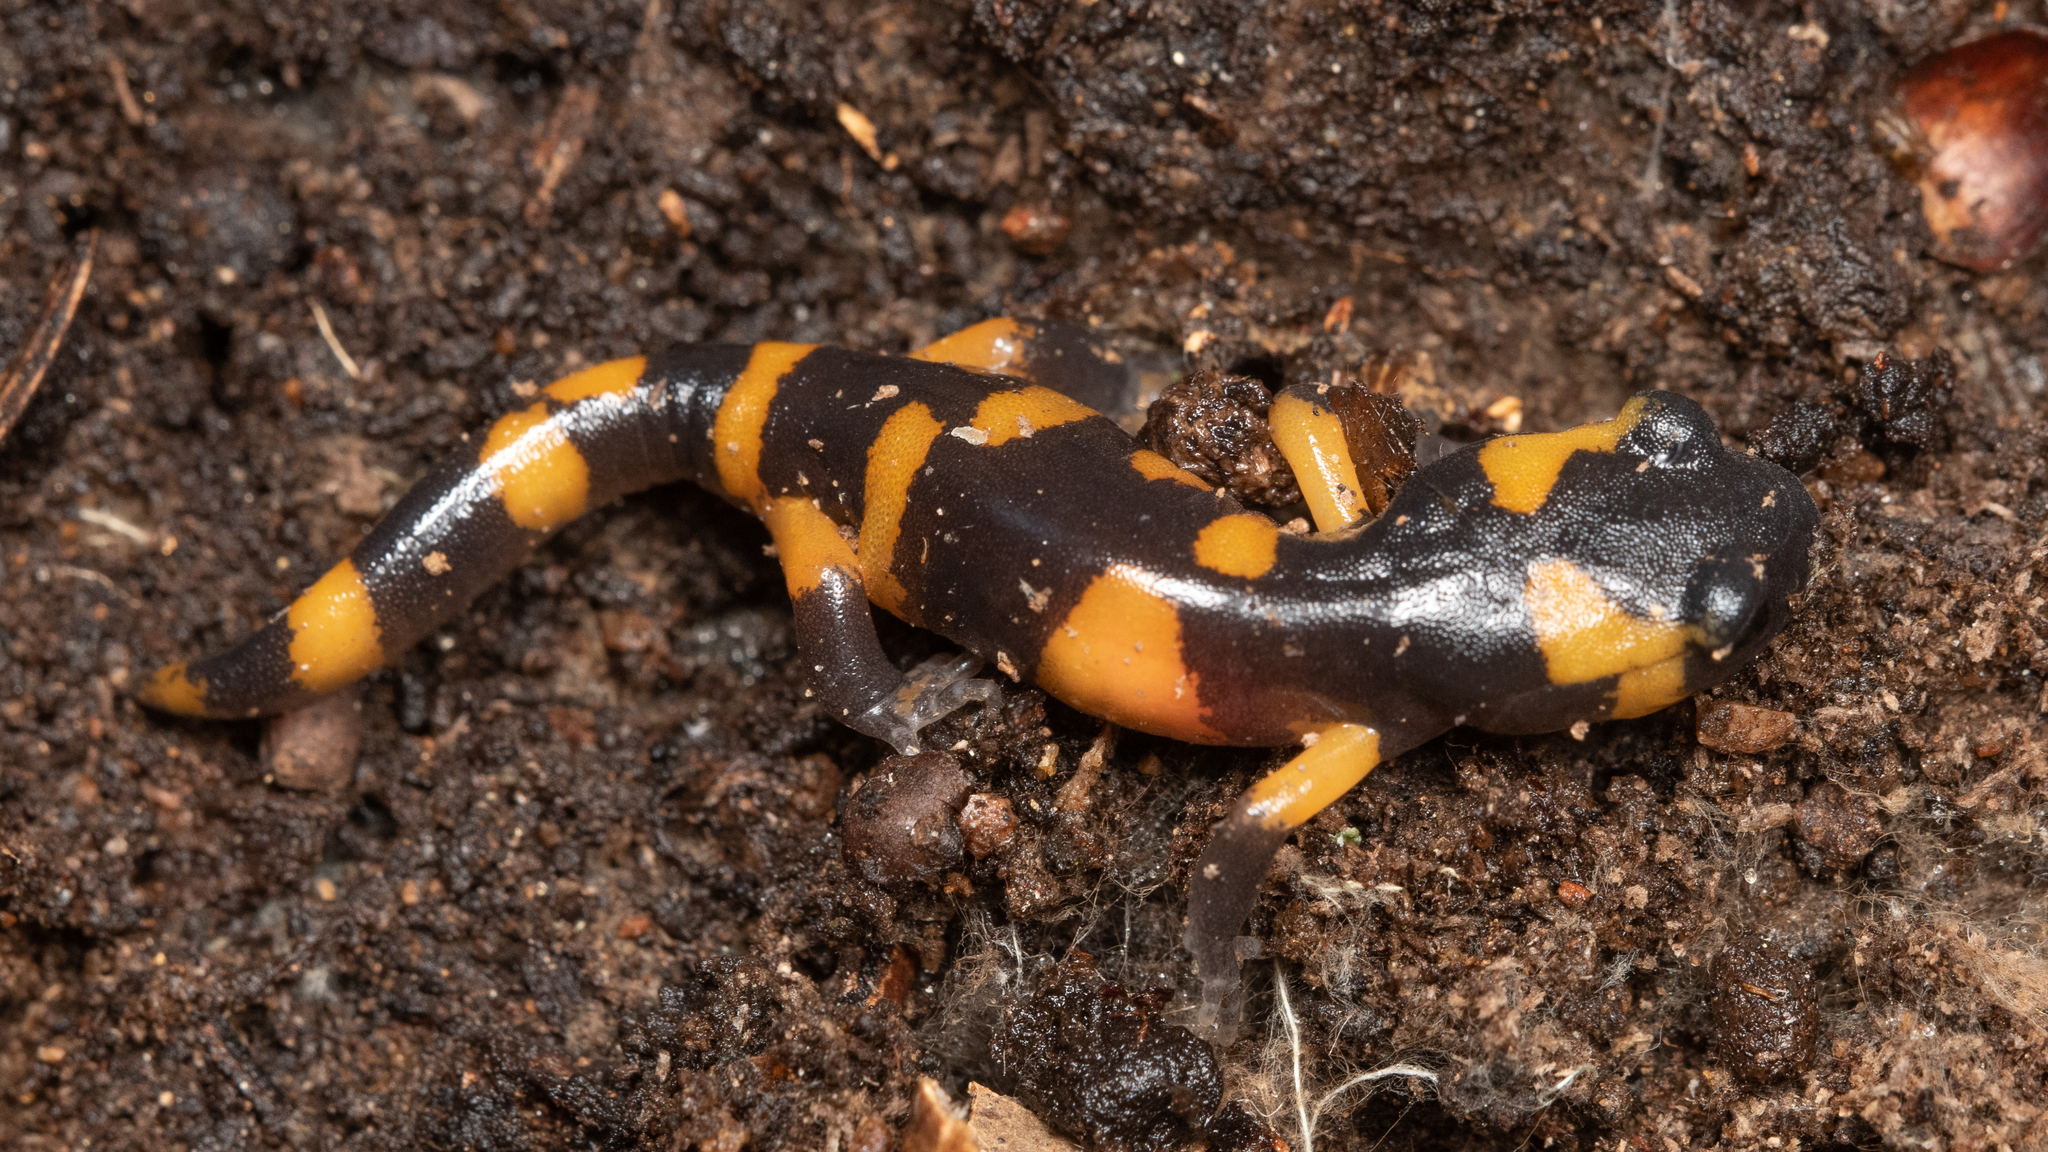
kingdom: Animalia
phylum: Chordata
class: Amphibia
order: Caudata
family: Plethodontidae
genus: Ensatina
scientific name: Ensatina eschscholtzii
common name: Ensatina
